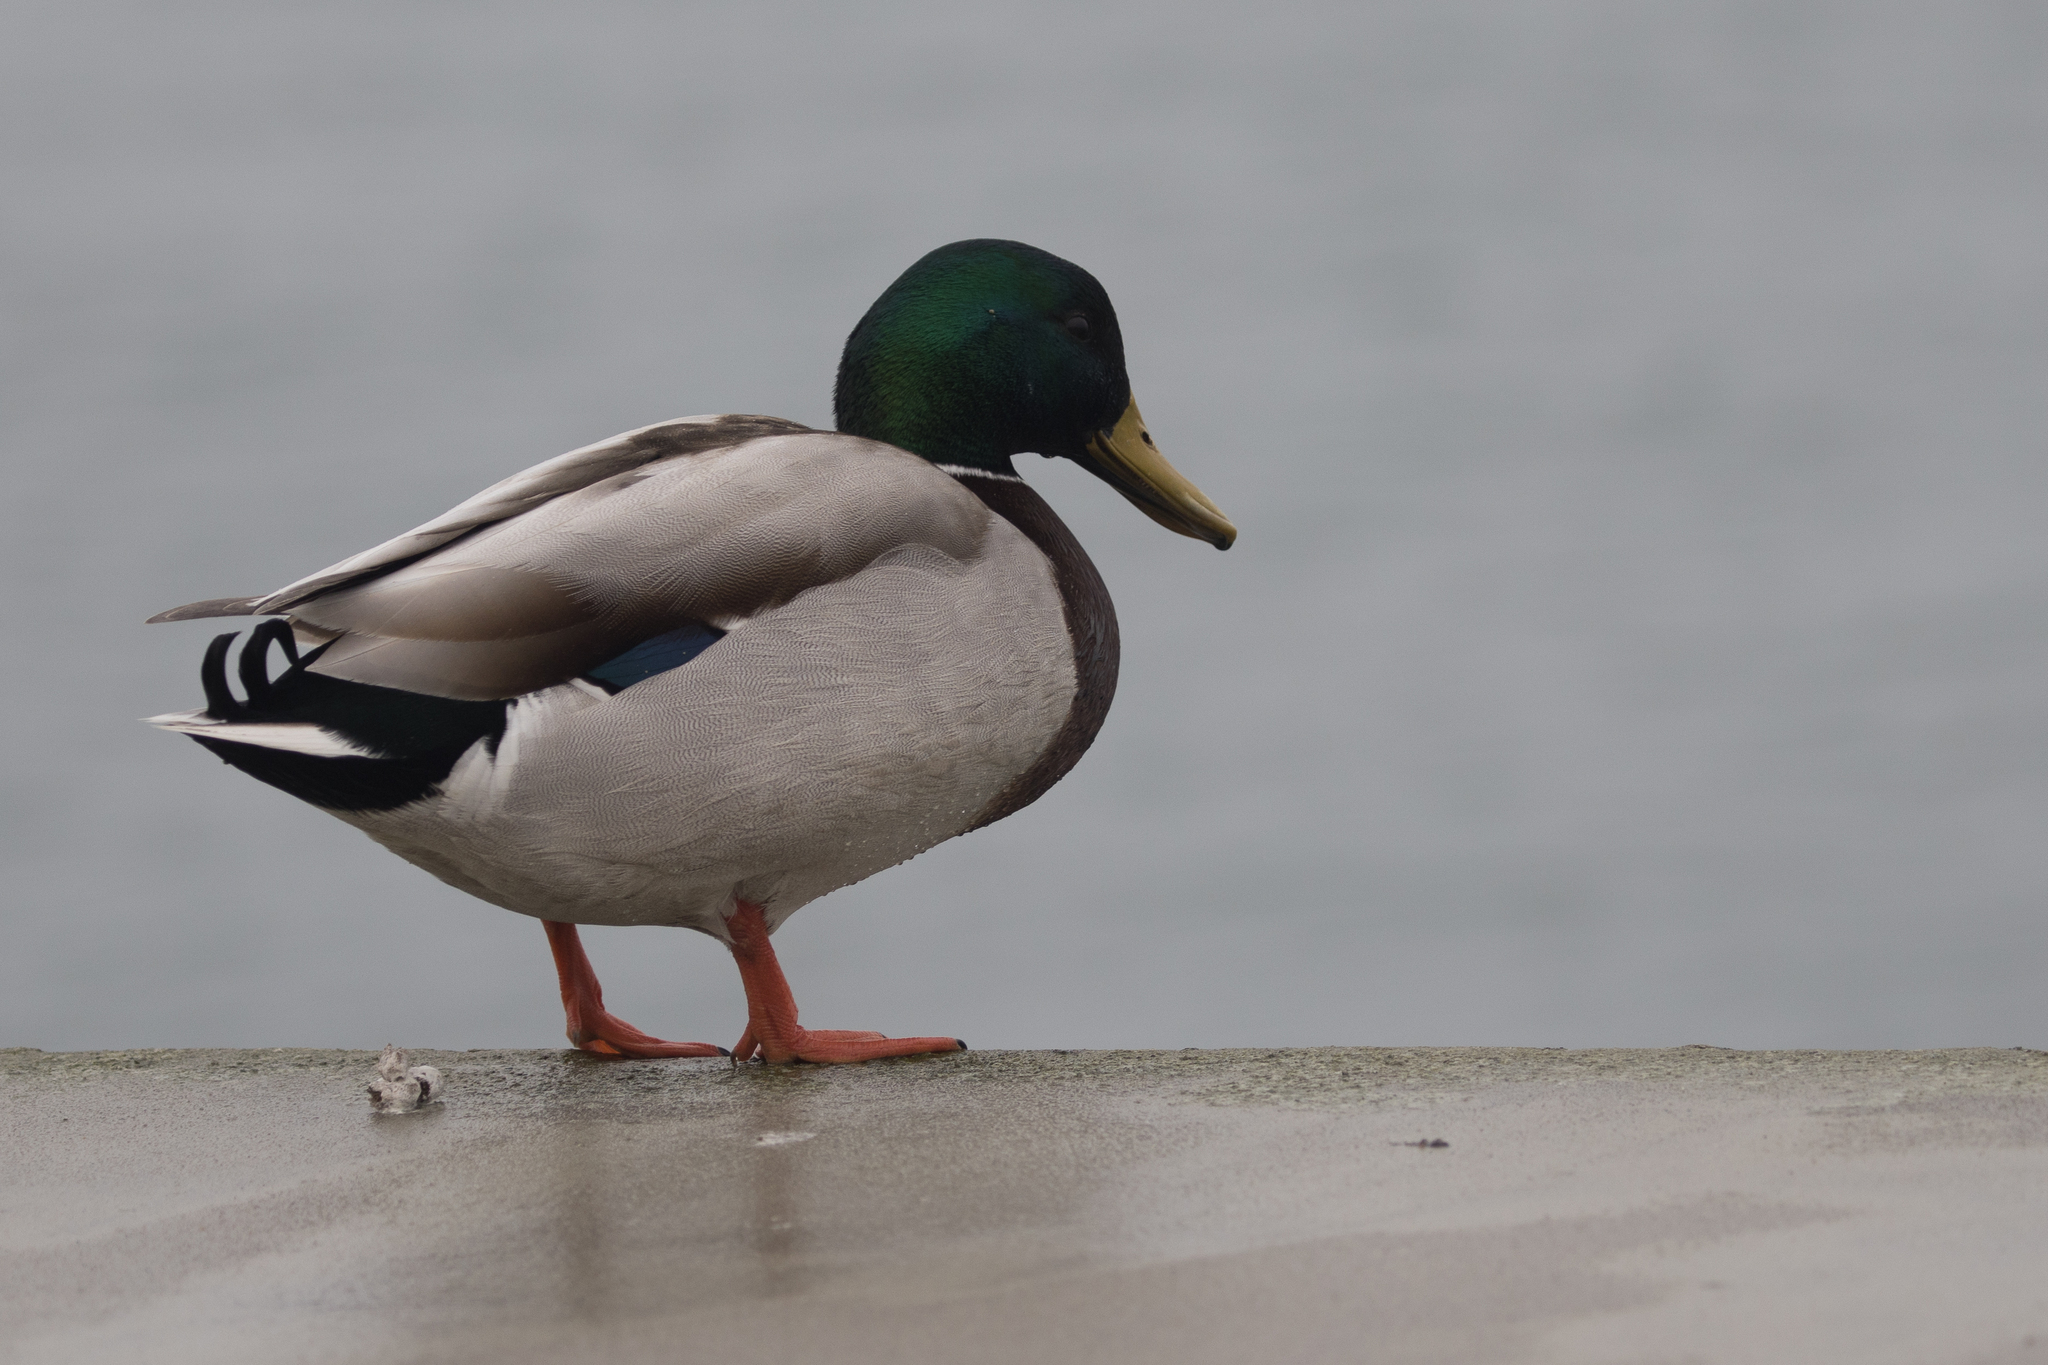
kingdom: Animalia
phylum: Chordata
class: Aves
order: Anseriformes
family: Anatidae
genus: Anas
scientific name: Anas platyrhynchos
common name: Mallard
